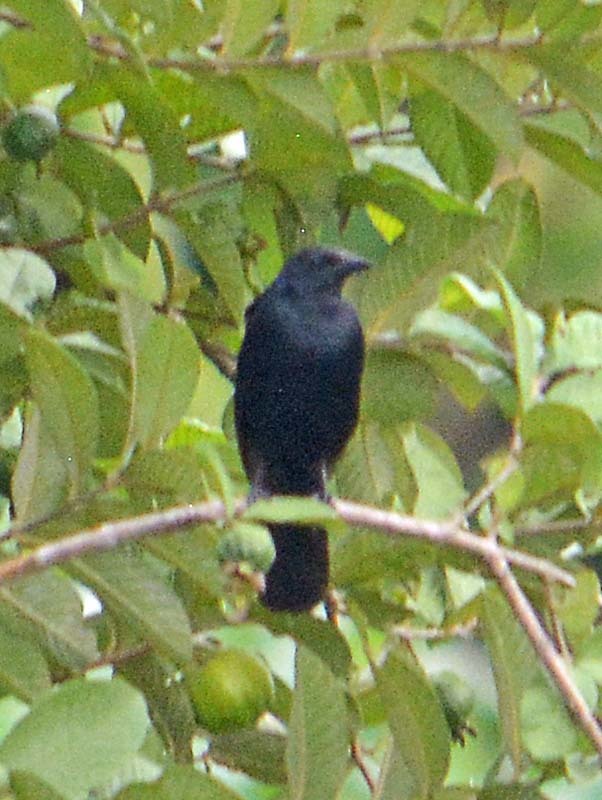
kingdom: Animalia
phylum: Chordata
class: Aves
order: Passeriformes
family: Icteridae
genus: Dives
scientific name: Dives dives
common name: Melodious blackbird
